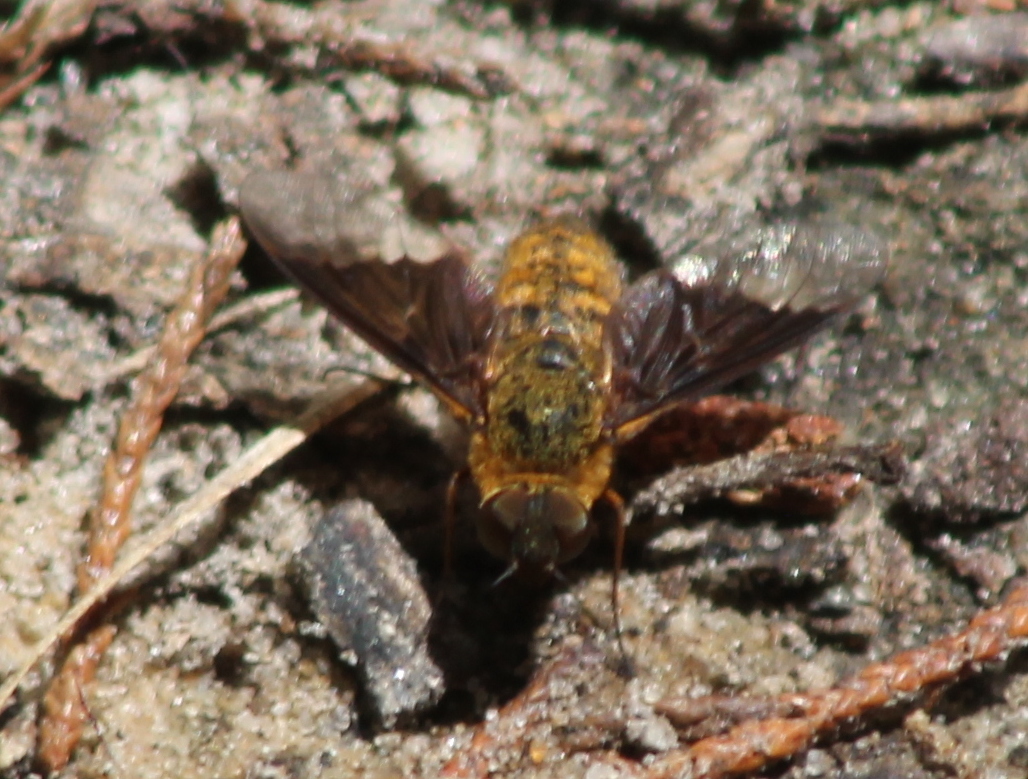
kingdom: Animalia
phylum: Arthropoda
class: Insecta
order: Diptera
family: Bombyliidae
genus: Chrysanthrax
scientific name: Chrysanthrax cypris
